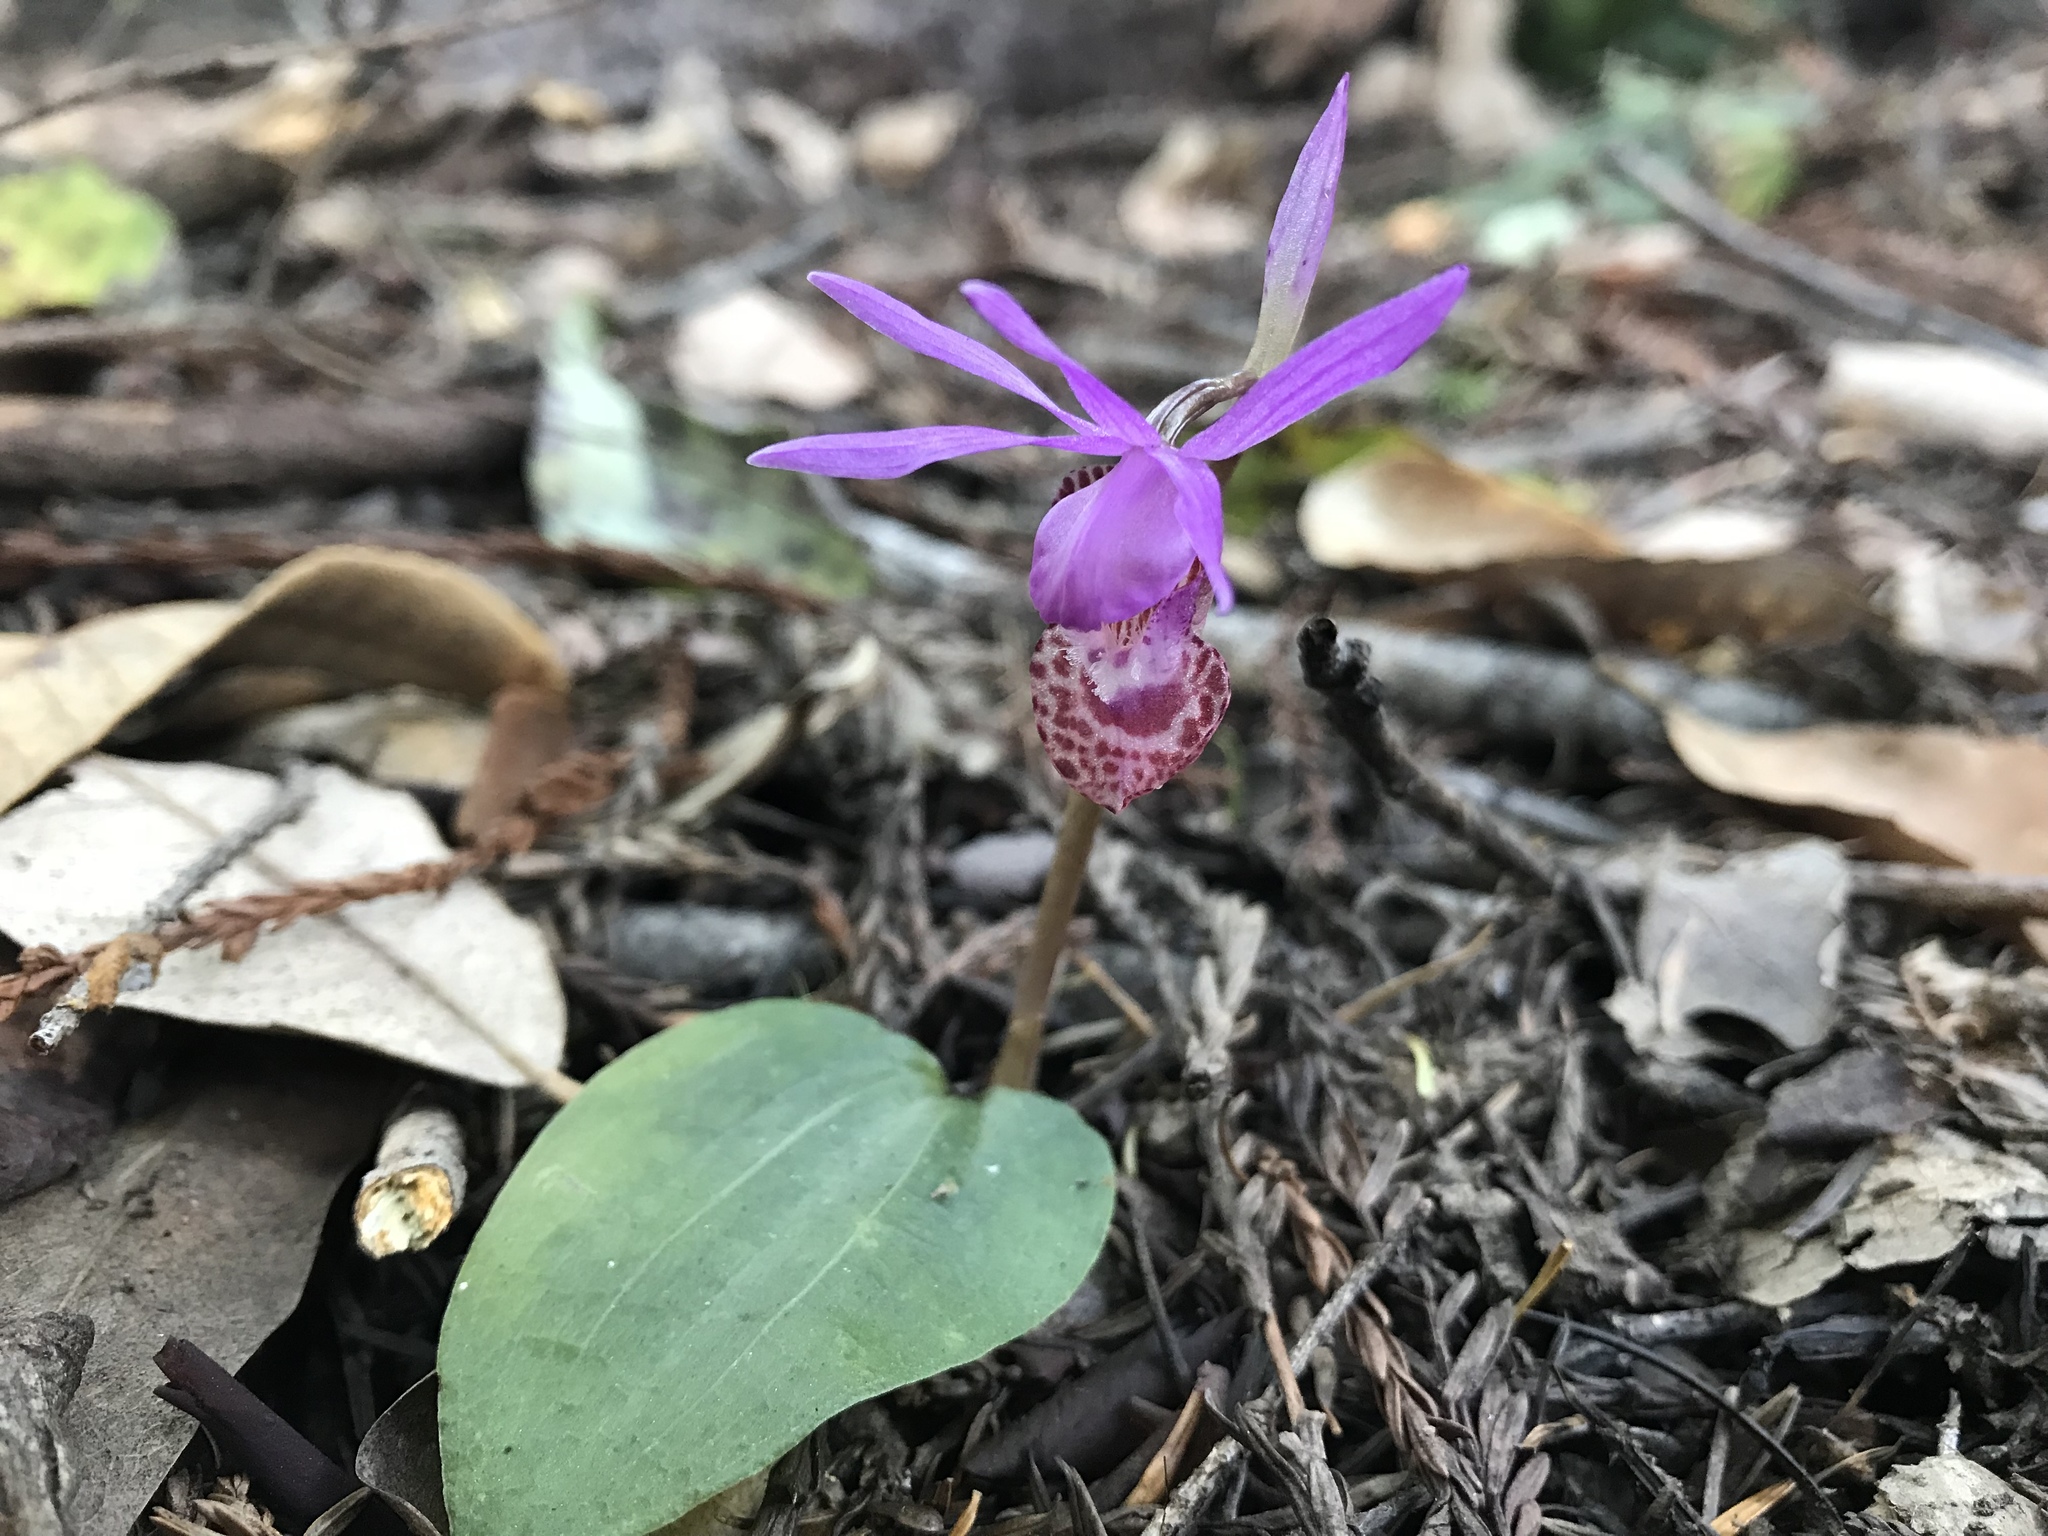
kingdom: Plantae
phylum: Tracheophyta
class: Liliopsida
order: Asparagales
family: Orchidaceae
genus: Calypso
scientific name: Calypso bulbosa
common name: Calypso
